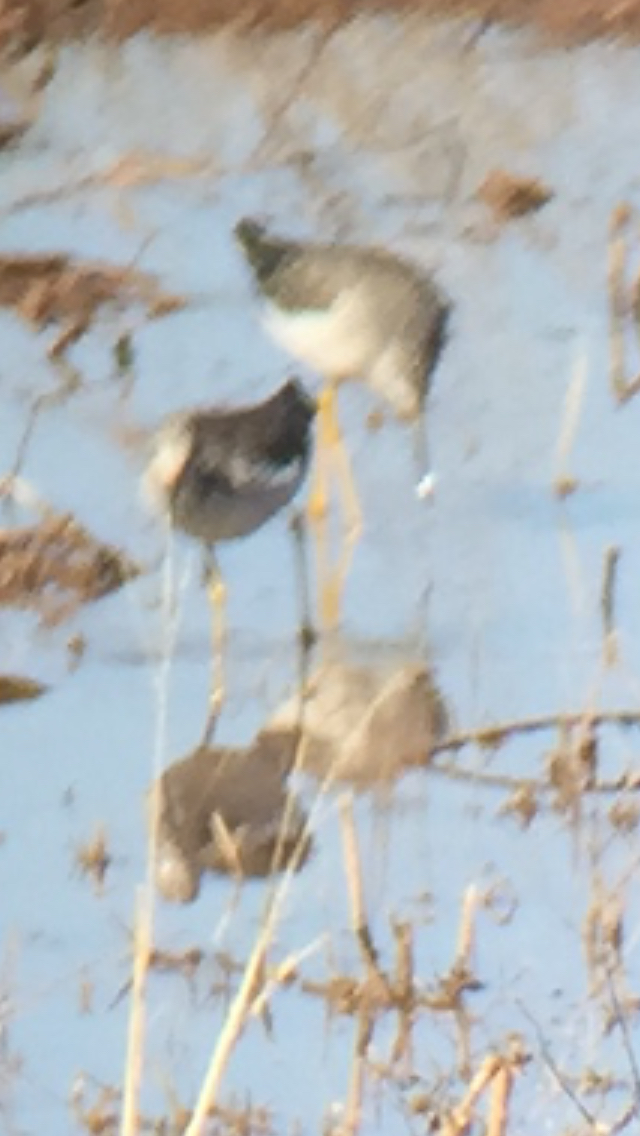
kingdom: Animalia
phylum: Chordata
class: Aves
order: Charadriiformes
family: Scolopacidae
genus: Tringa
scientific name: Tringa melanoleuca
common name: Greater yellowlegs
